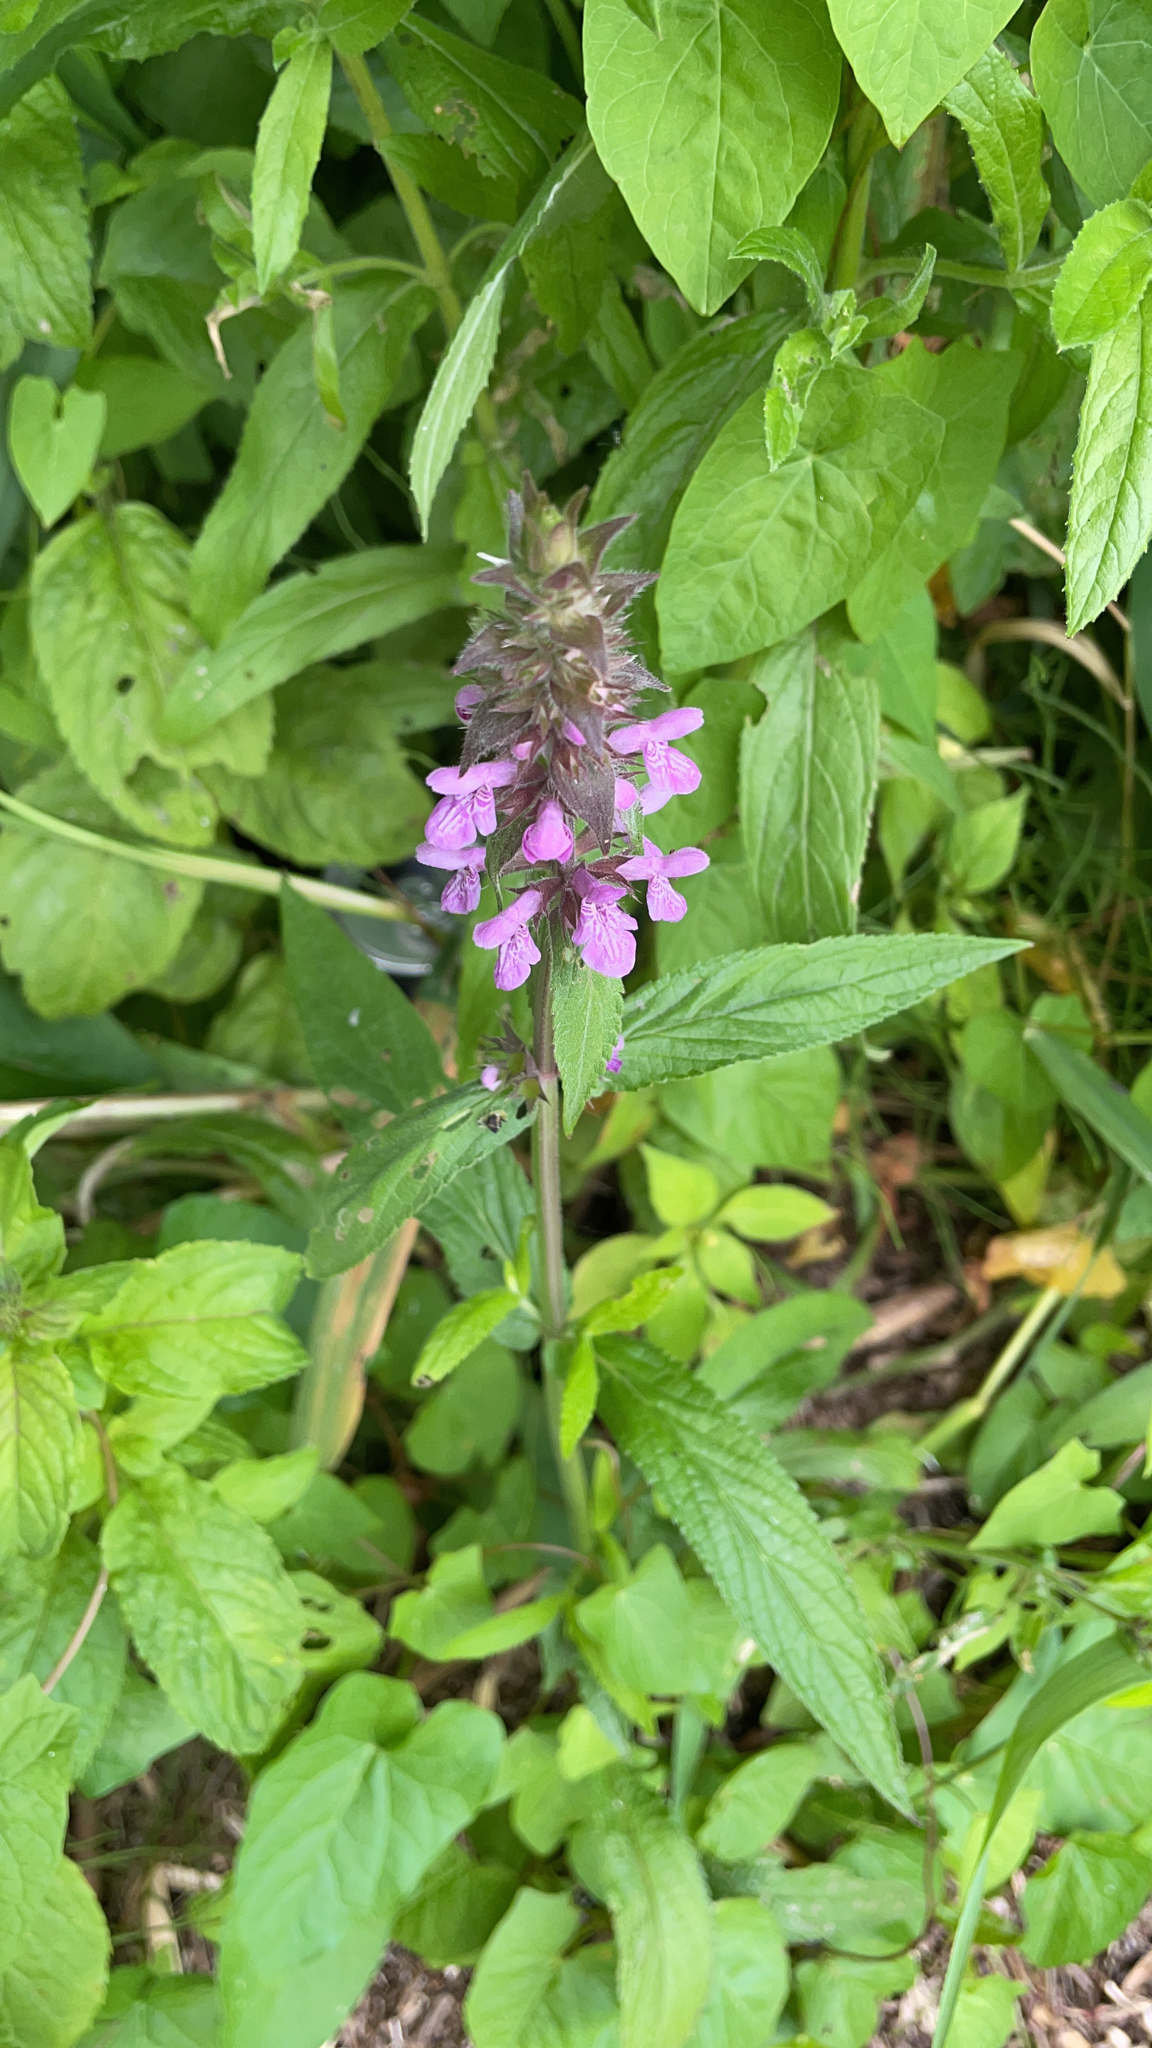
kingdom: Plantae
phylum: Tracheophyta
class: Magnoliopsida
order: Lamiales
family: Lamiaceae
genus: Stachys
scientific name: Stachys palustris
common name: Marsh woundwort
